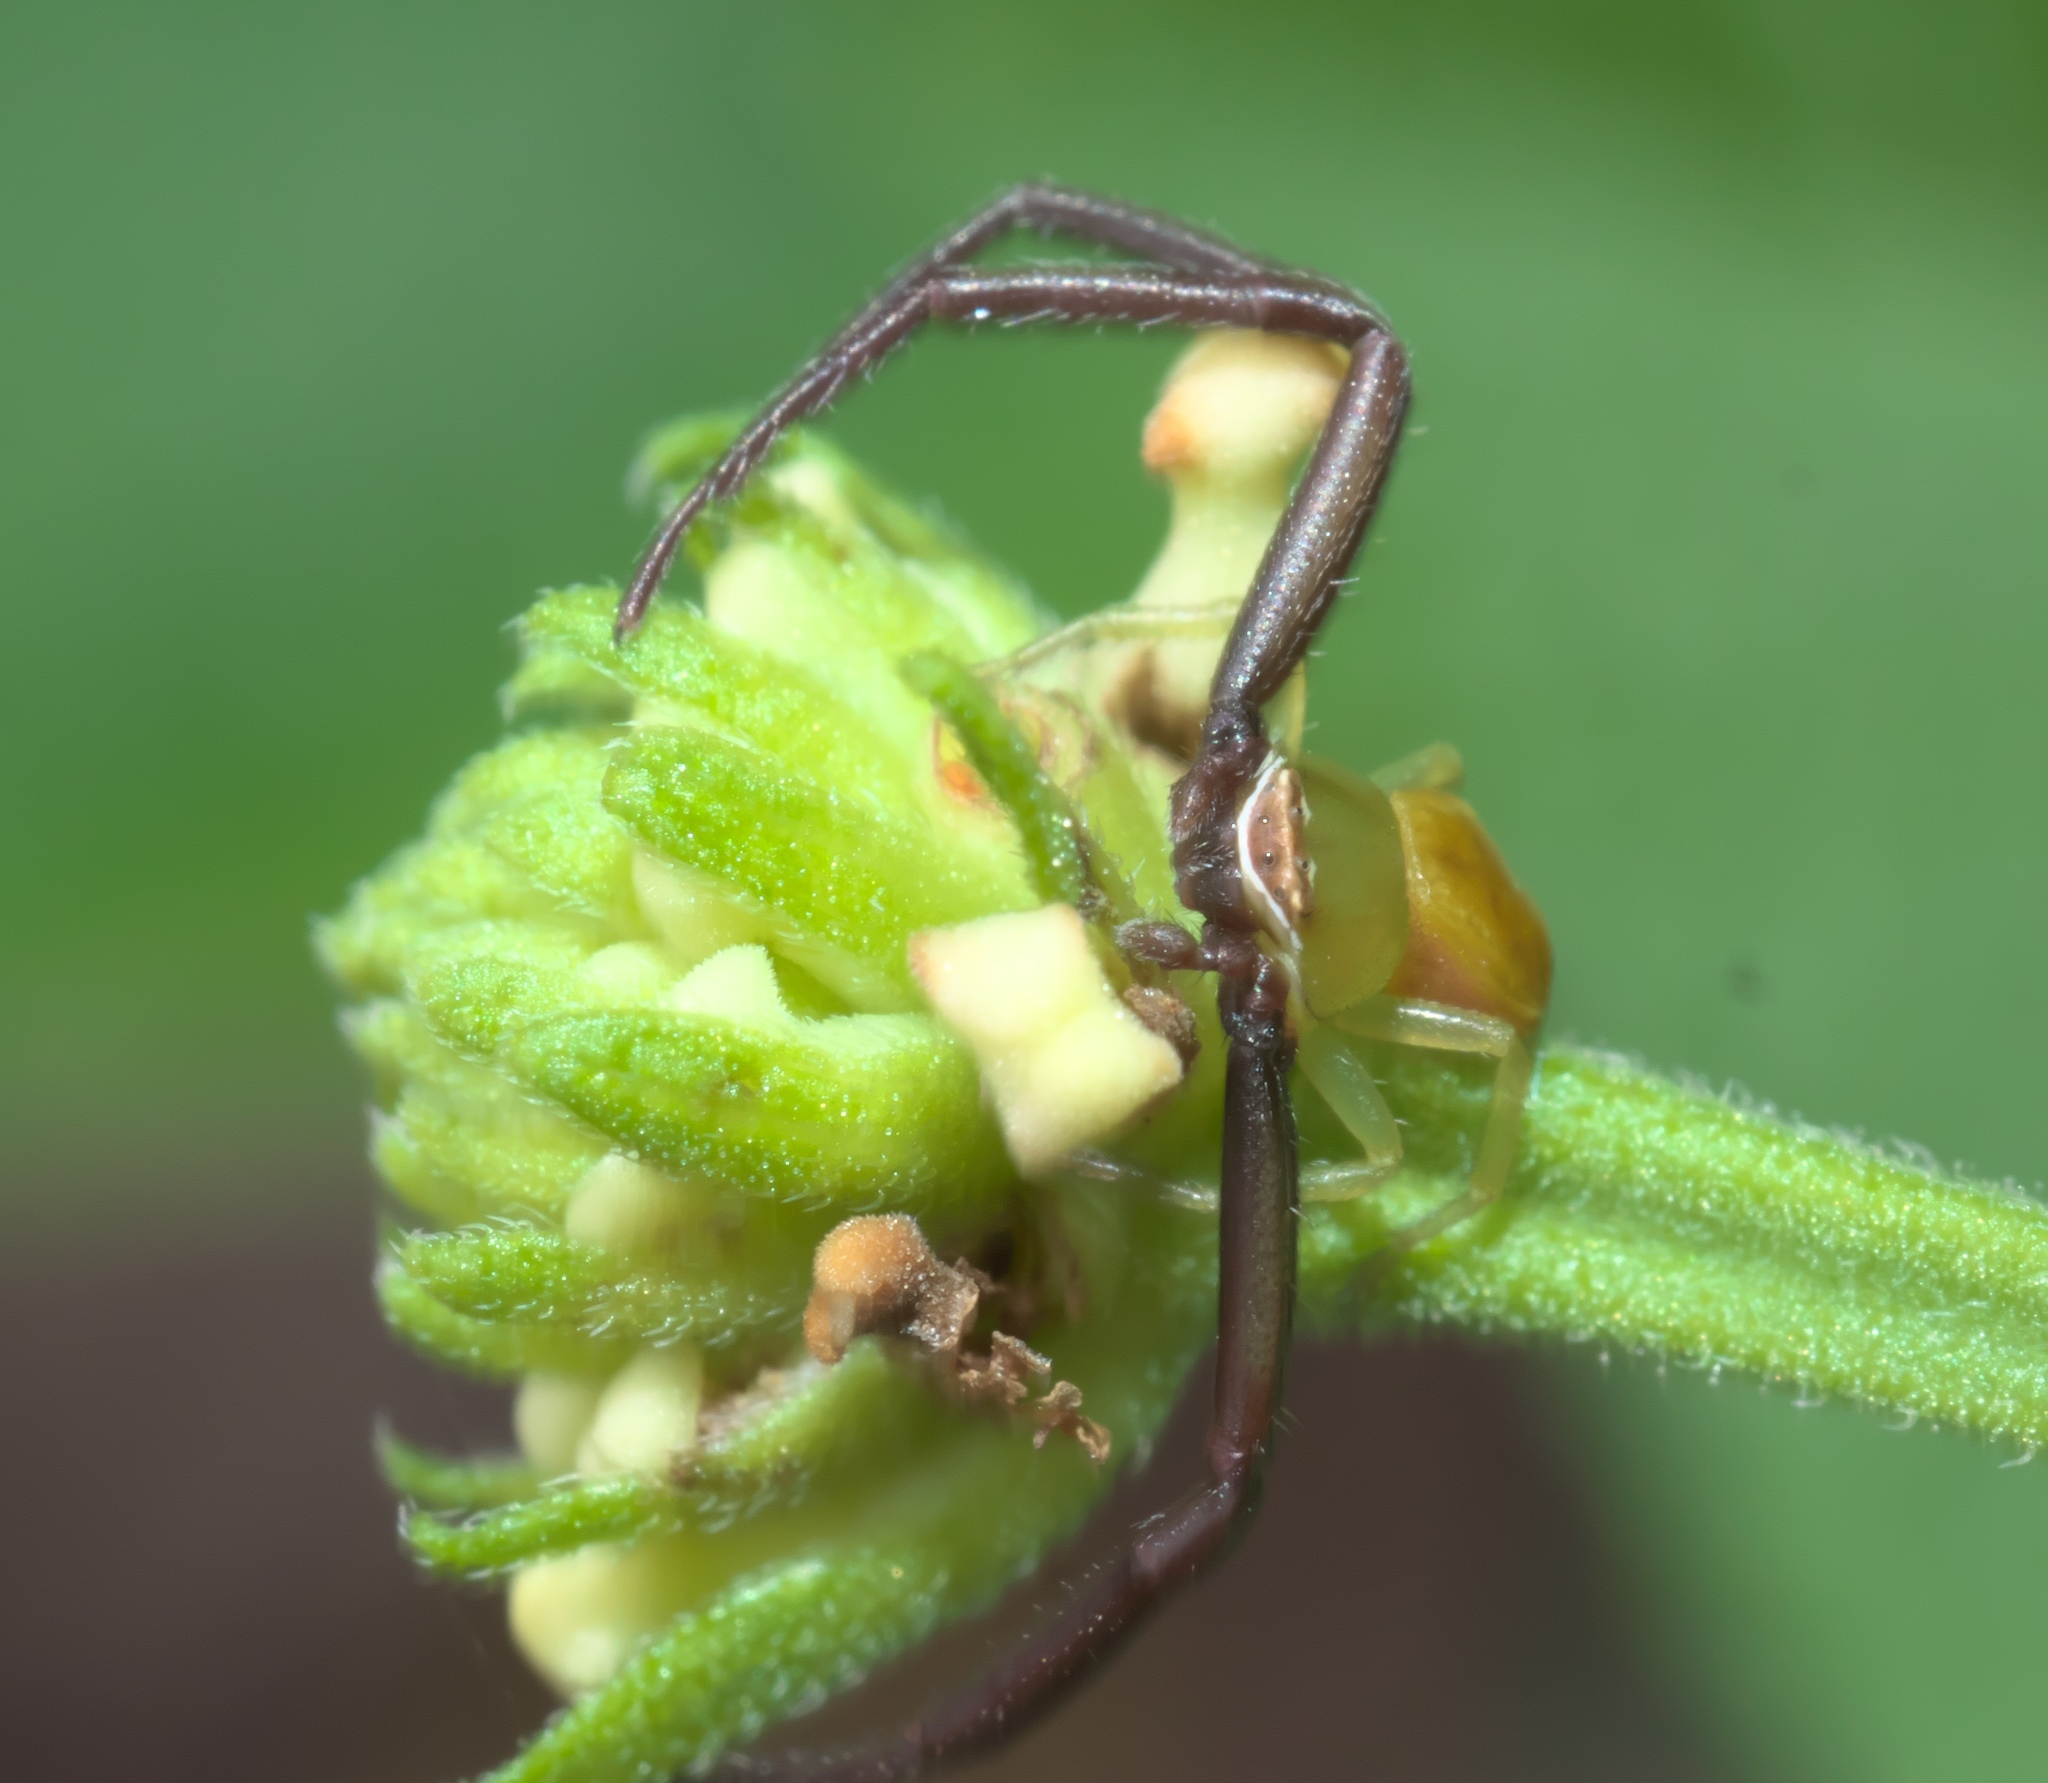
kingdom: Animalia
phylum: Arthropoda
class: Arachnida
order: Araneae
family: Thomisidae
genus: Misumenoides
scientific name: Misumenoides formosipes
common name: White-banded crab spider
